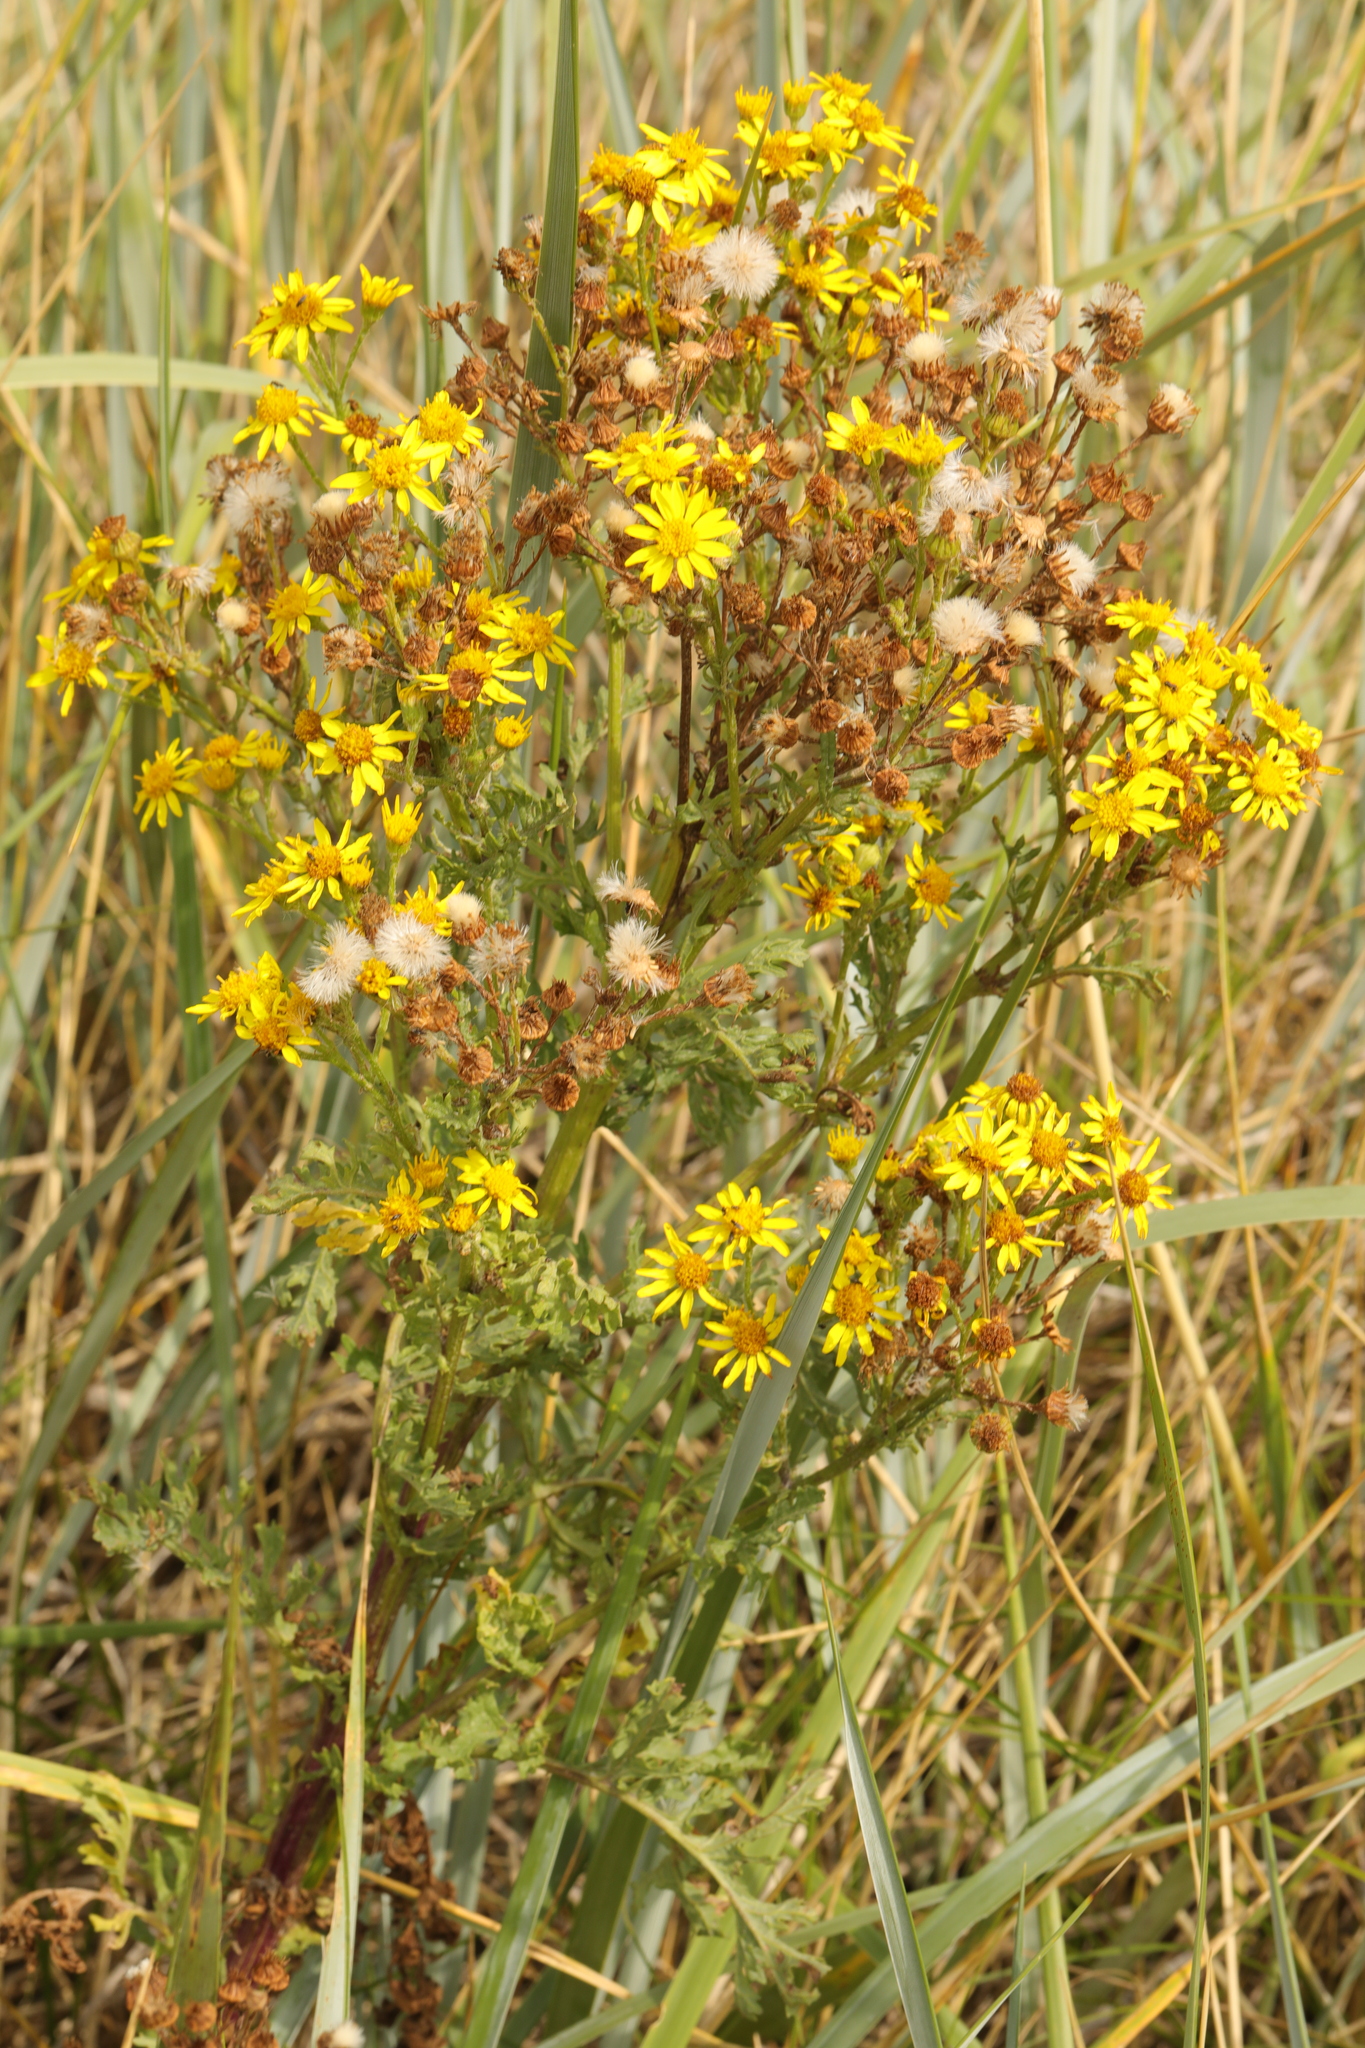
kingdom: Plantae
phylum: Tracheophyta
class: Magnoliopsida
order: Asterales
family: Asteraceae
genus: Jacobaea
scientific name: Jacobaea vulgaris
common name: Stinking willie
